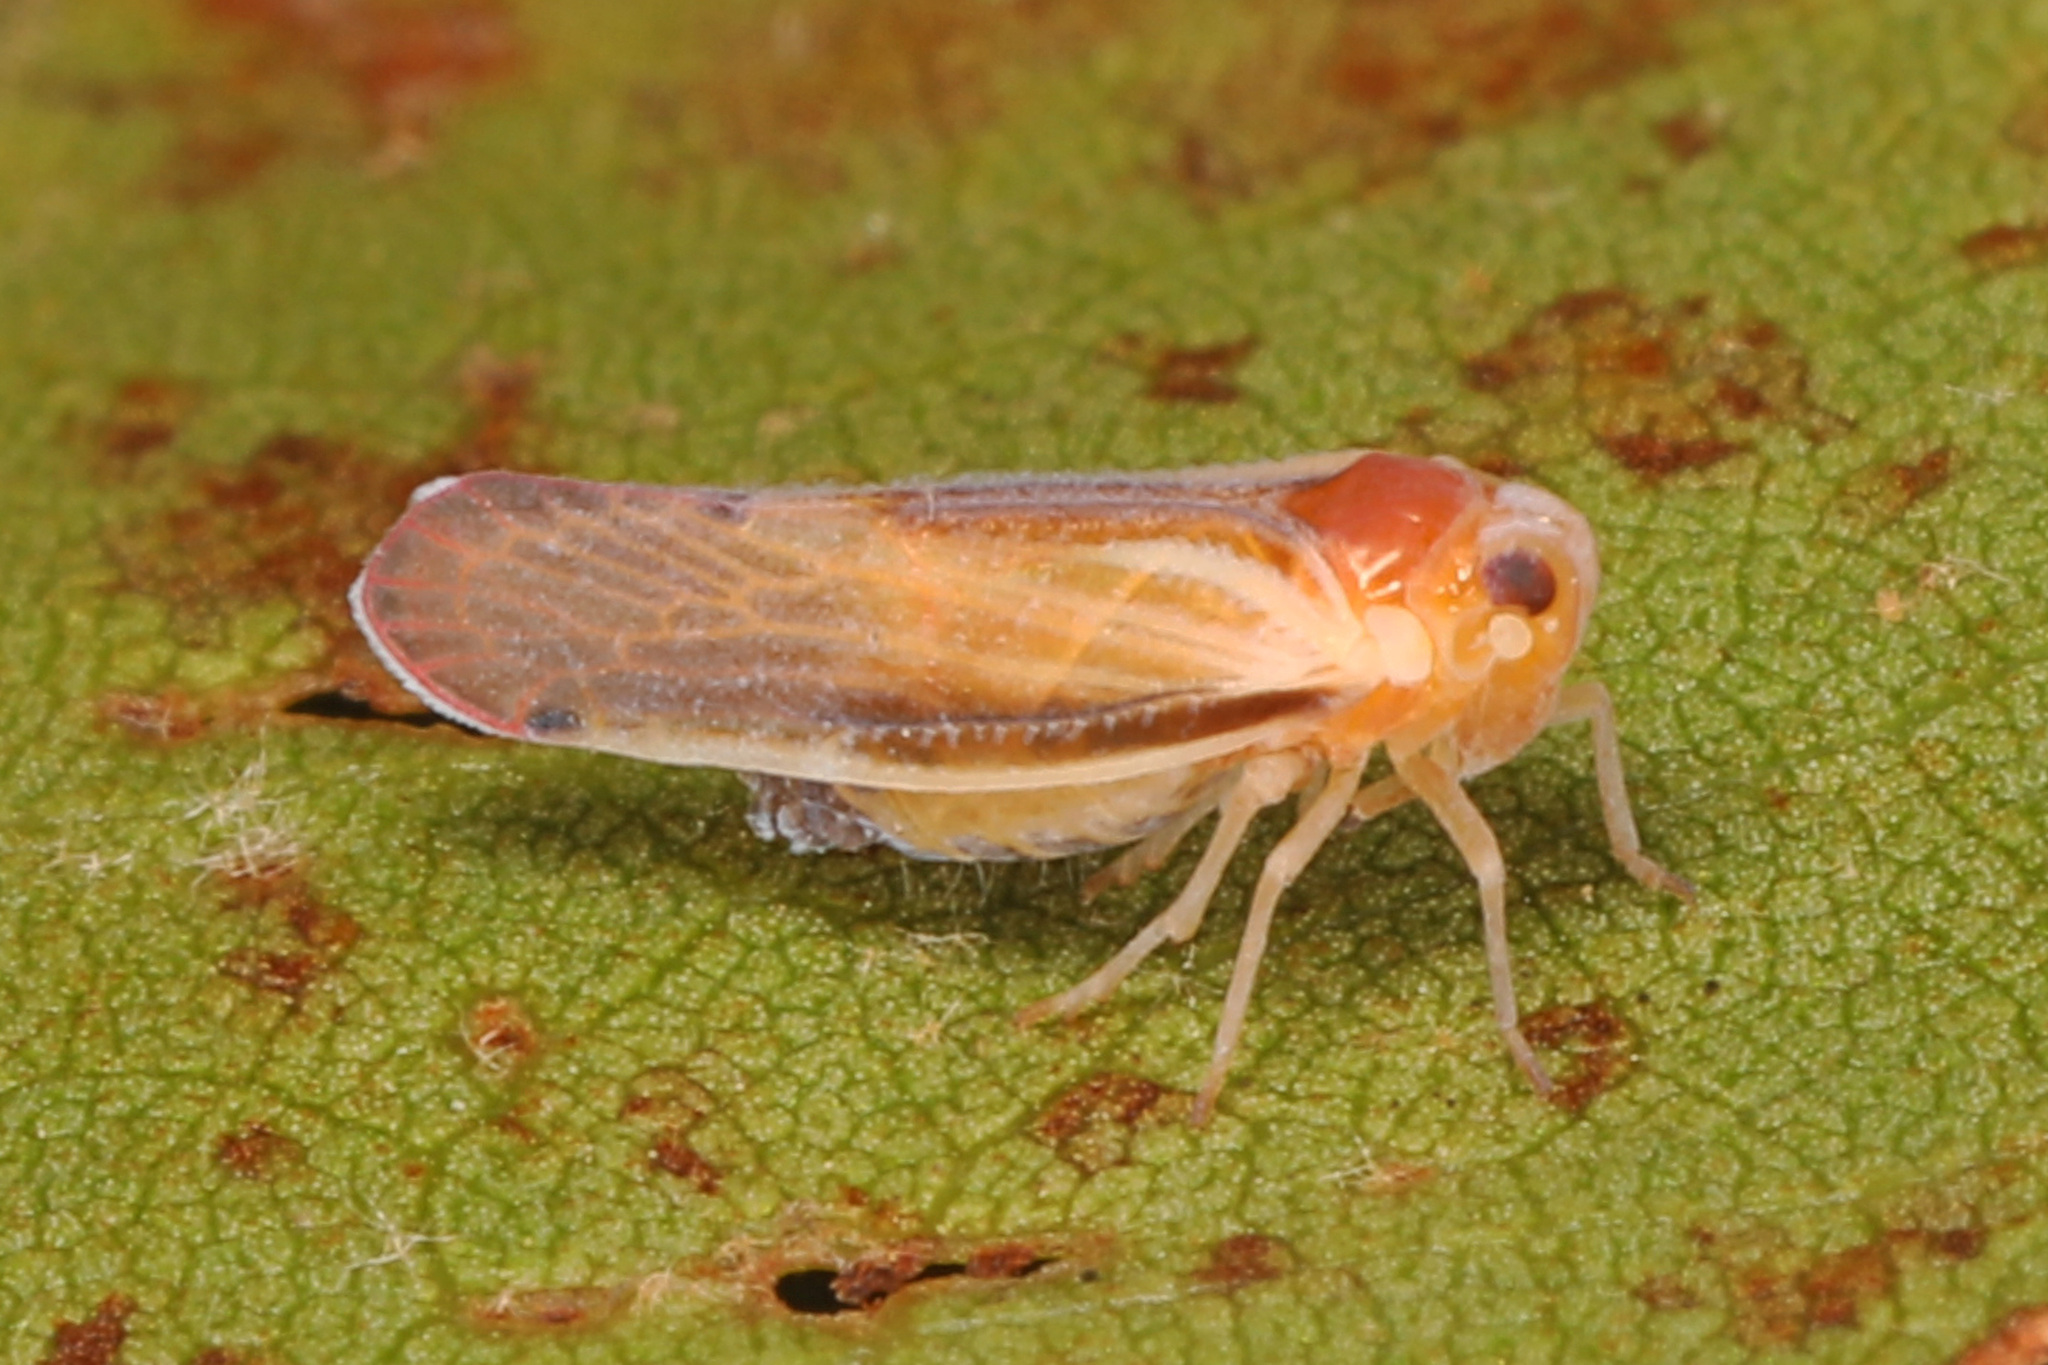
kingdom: Animalia
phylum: Arthropoda
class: Insecta
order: Hemiptera
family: Derbidae
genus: Omolicna
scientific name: Omolicna uhleri
